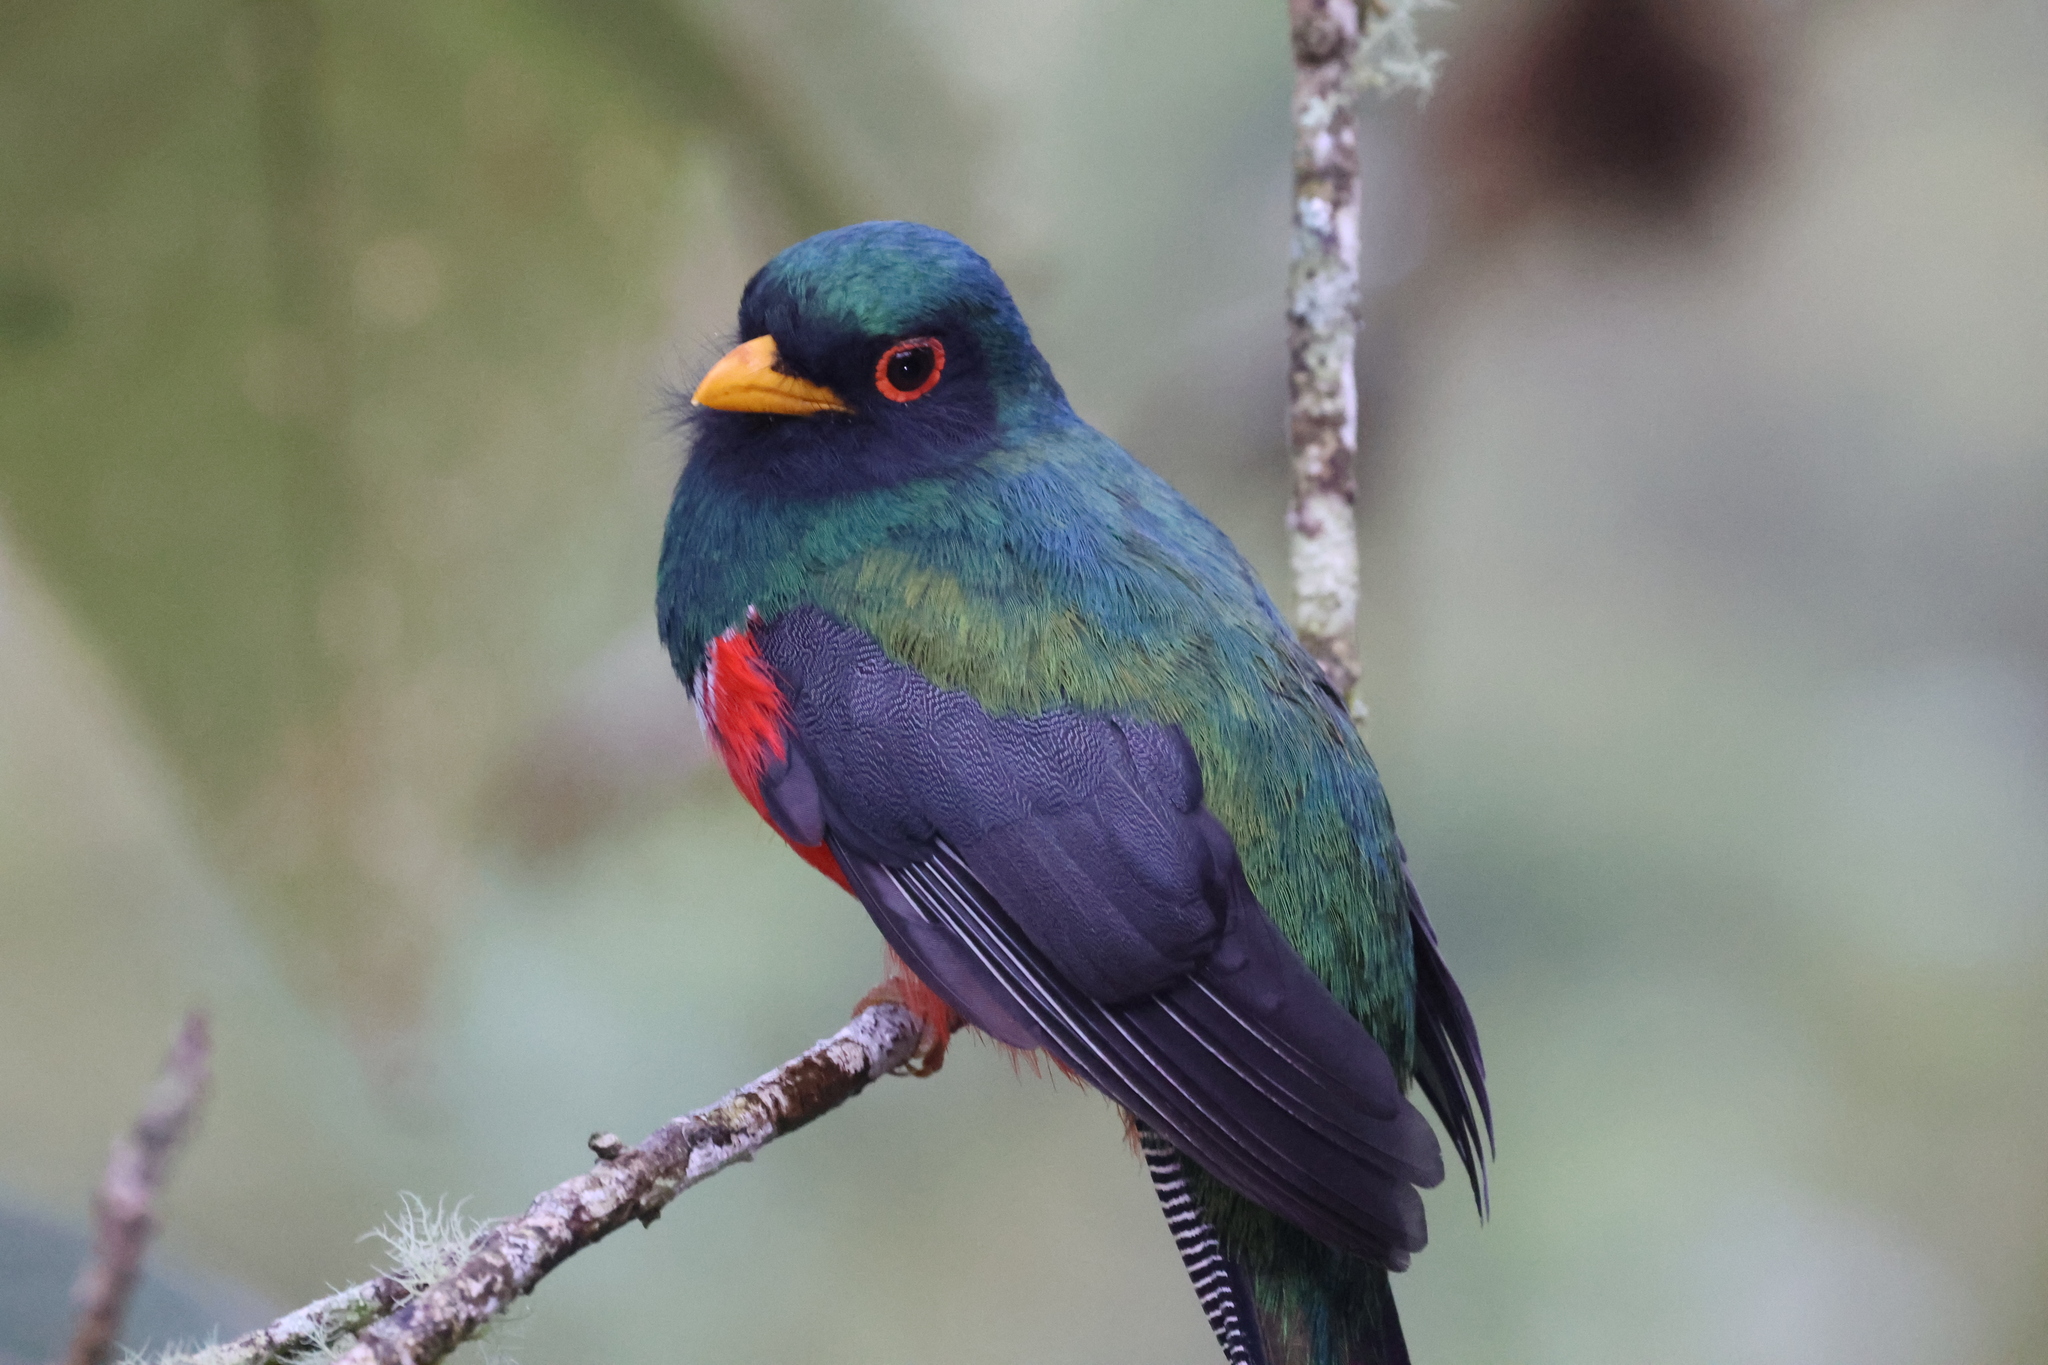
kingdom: Animalia
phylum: Chordata
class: Aves
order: Trogoniformes
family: Trogonidae
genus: Trogon
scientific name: Trogon personatus
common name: Masked trogon
